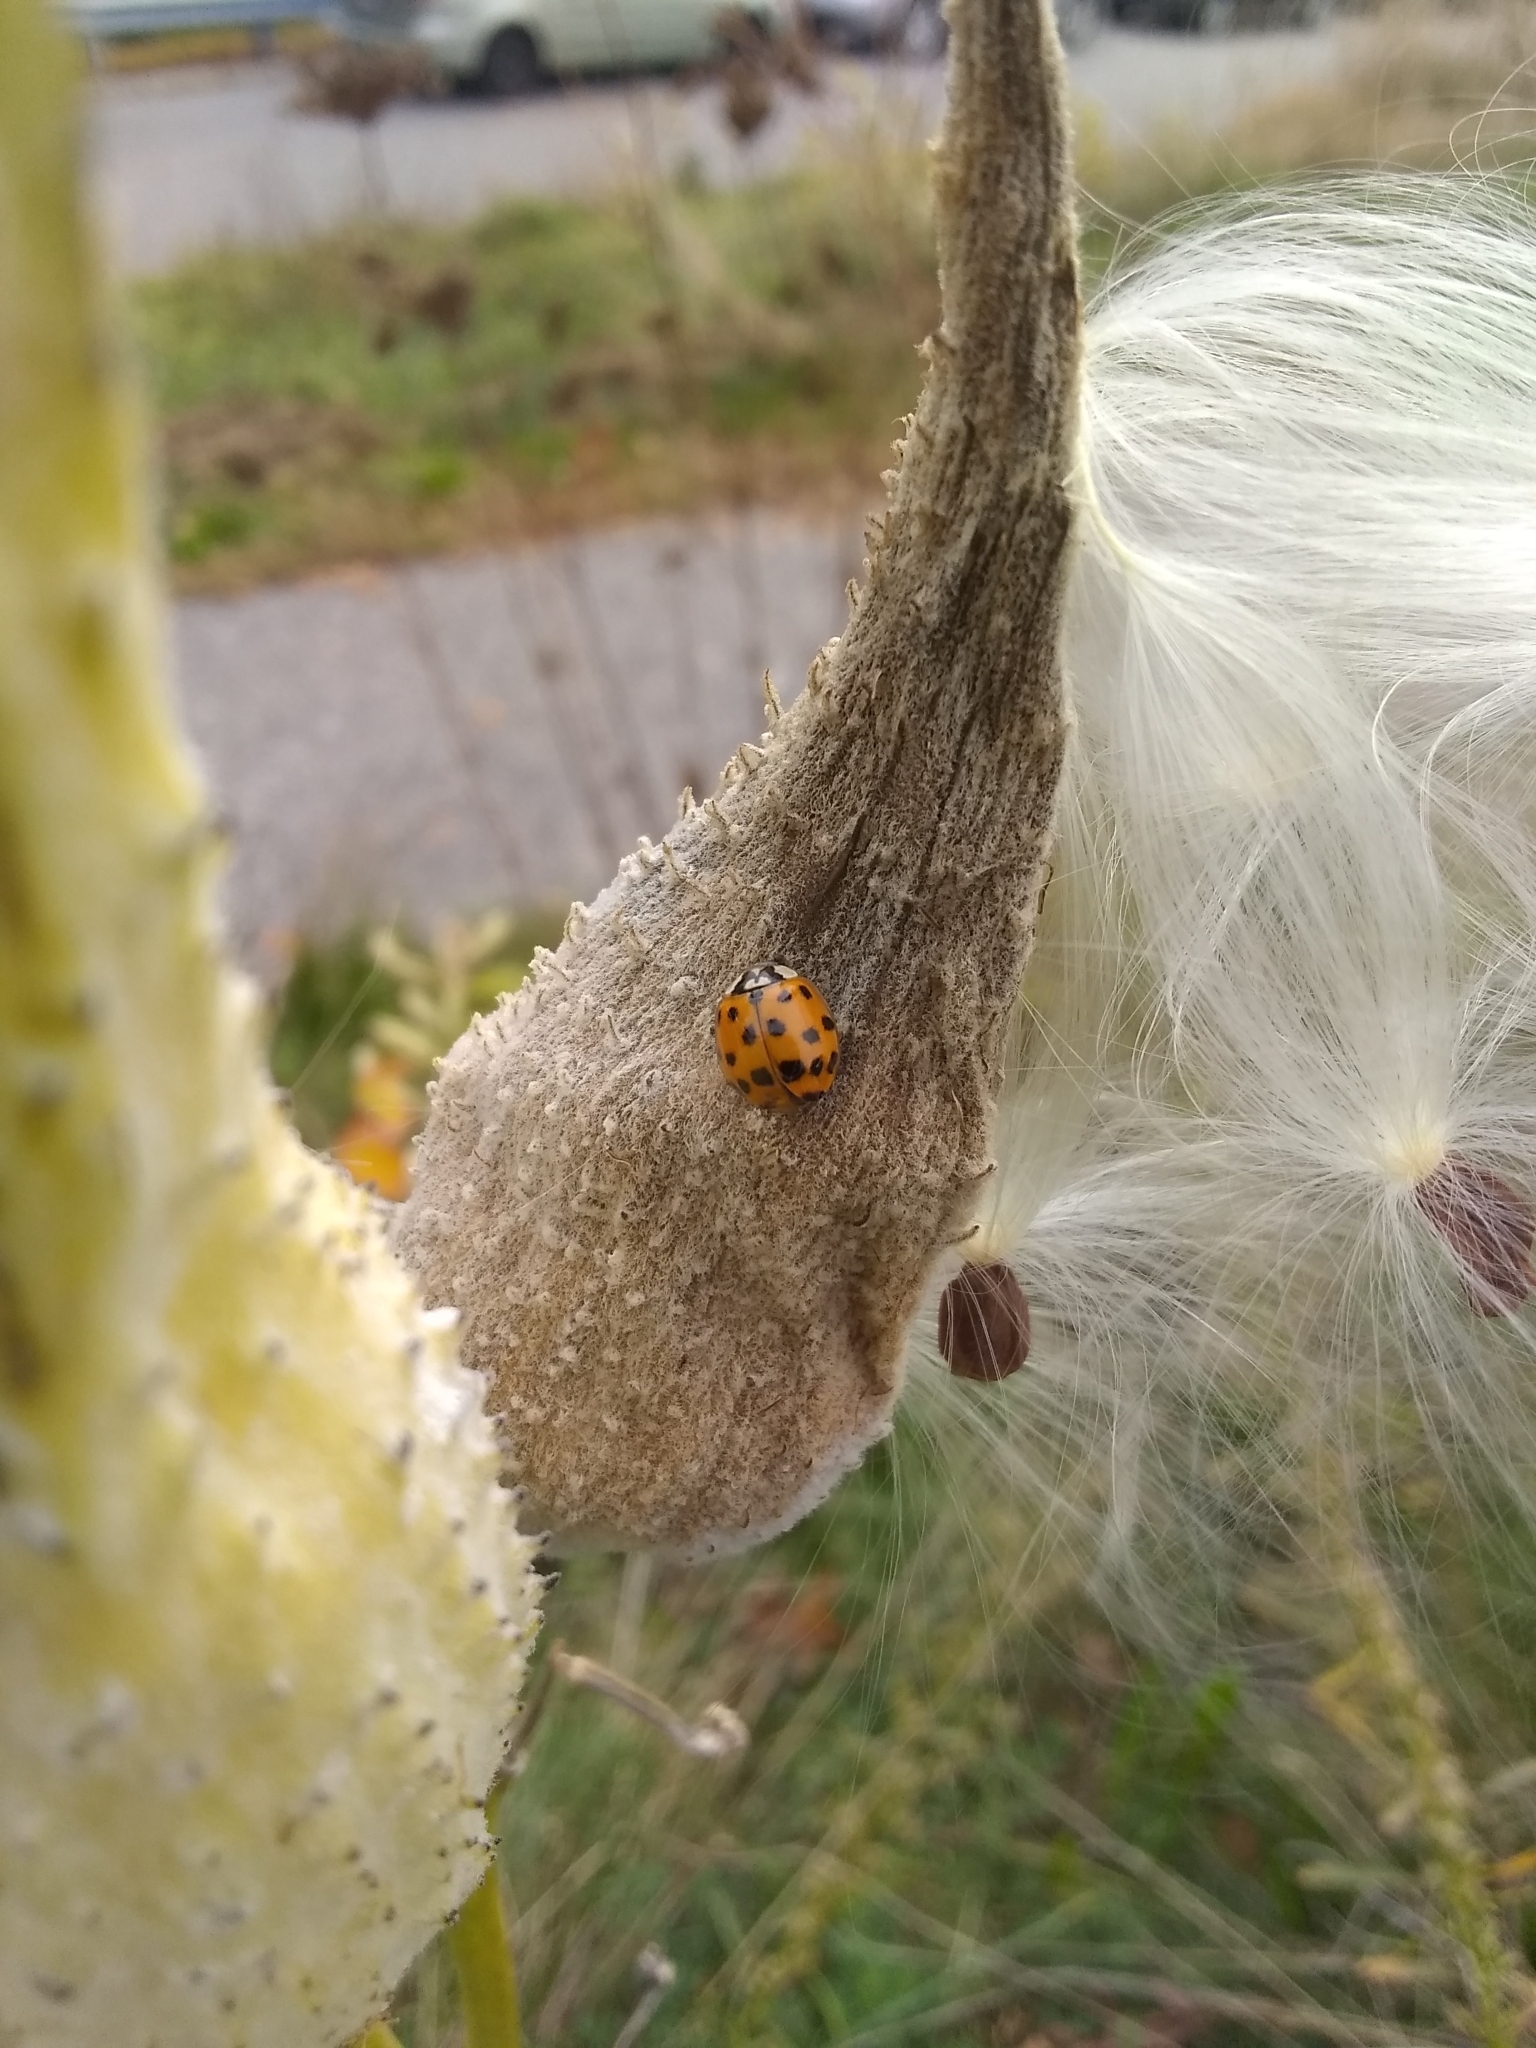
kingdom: Animalia
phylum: Arthropoda
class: Insecta
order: Coleoptera
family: Coccinellidae
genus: Harmonia
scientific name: Harmonia axyridis
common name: Harlequin ladybird
